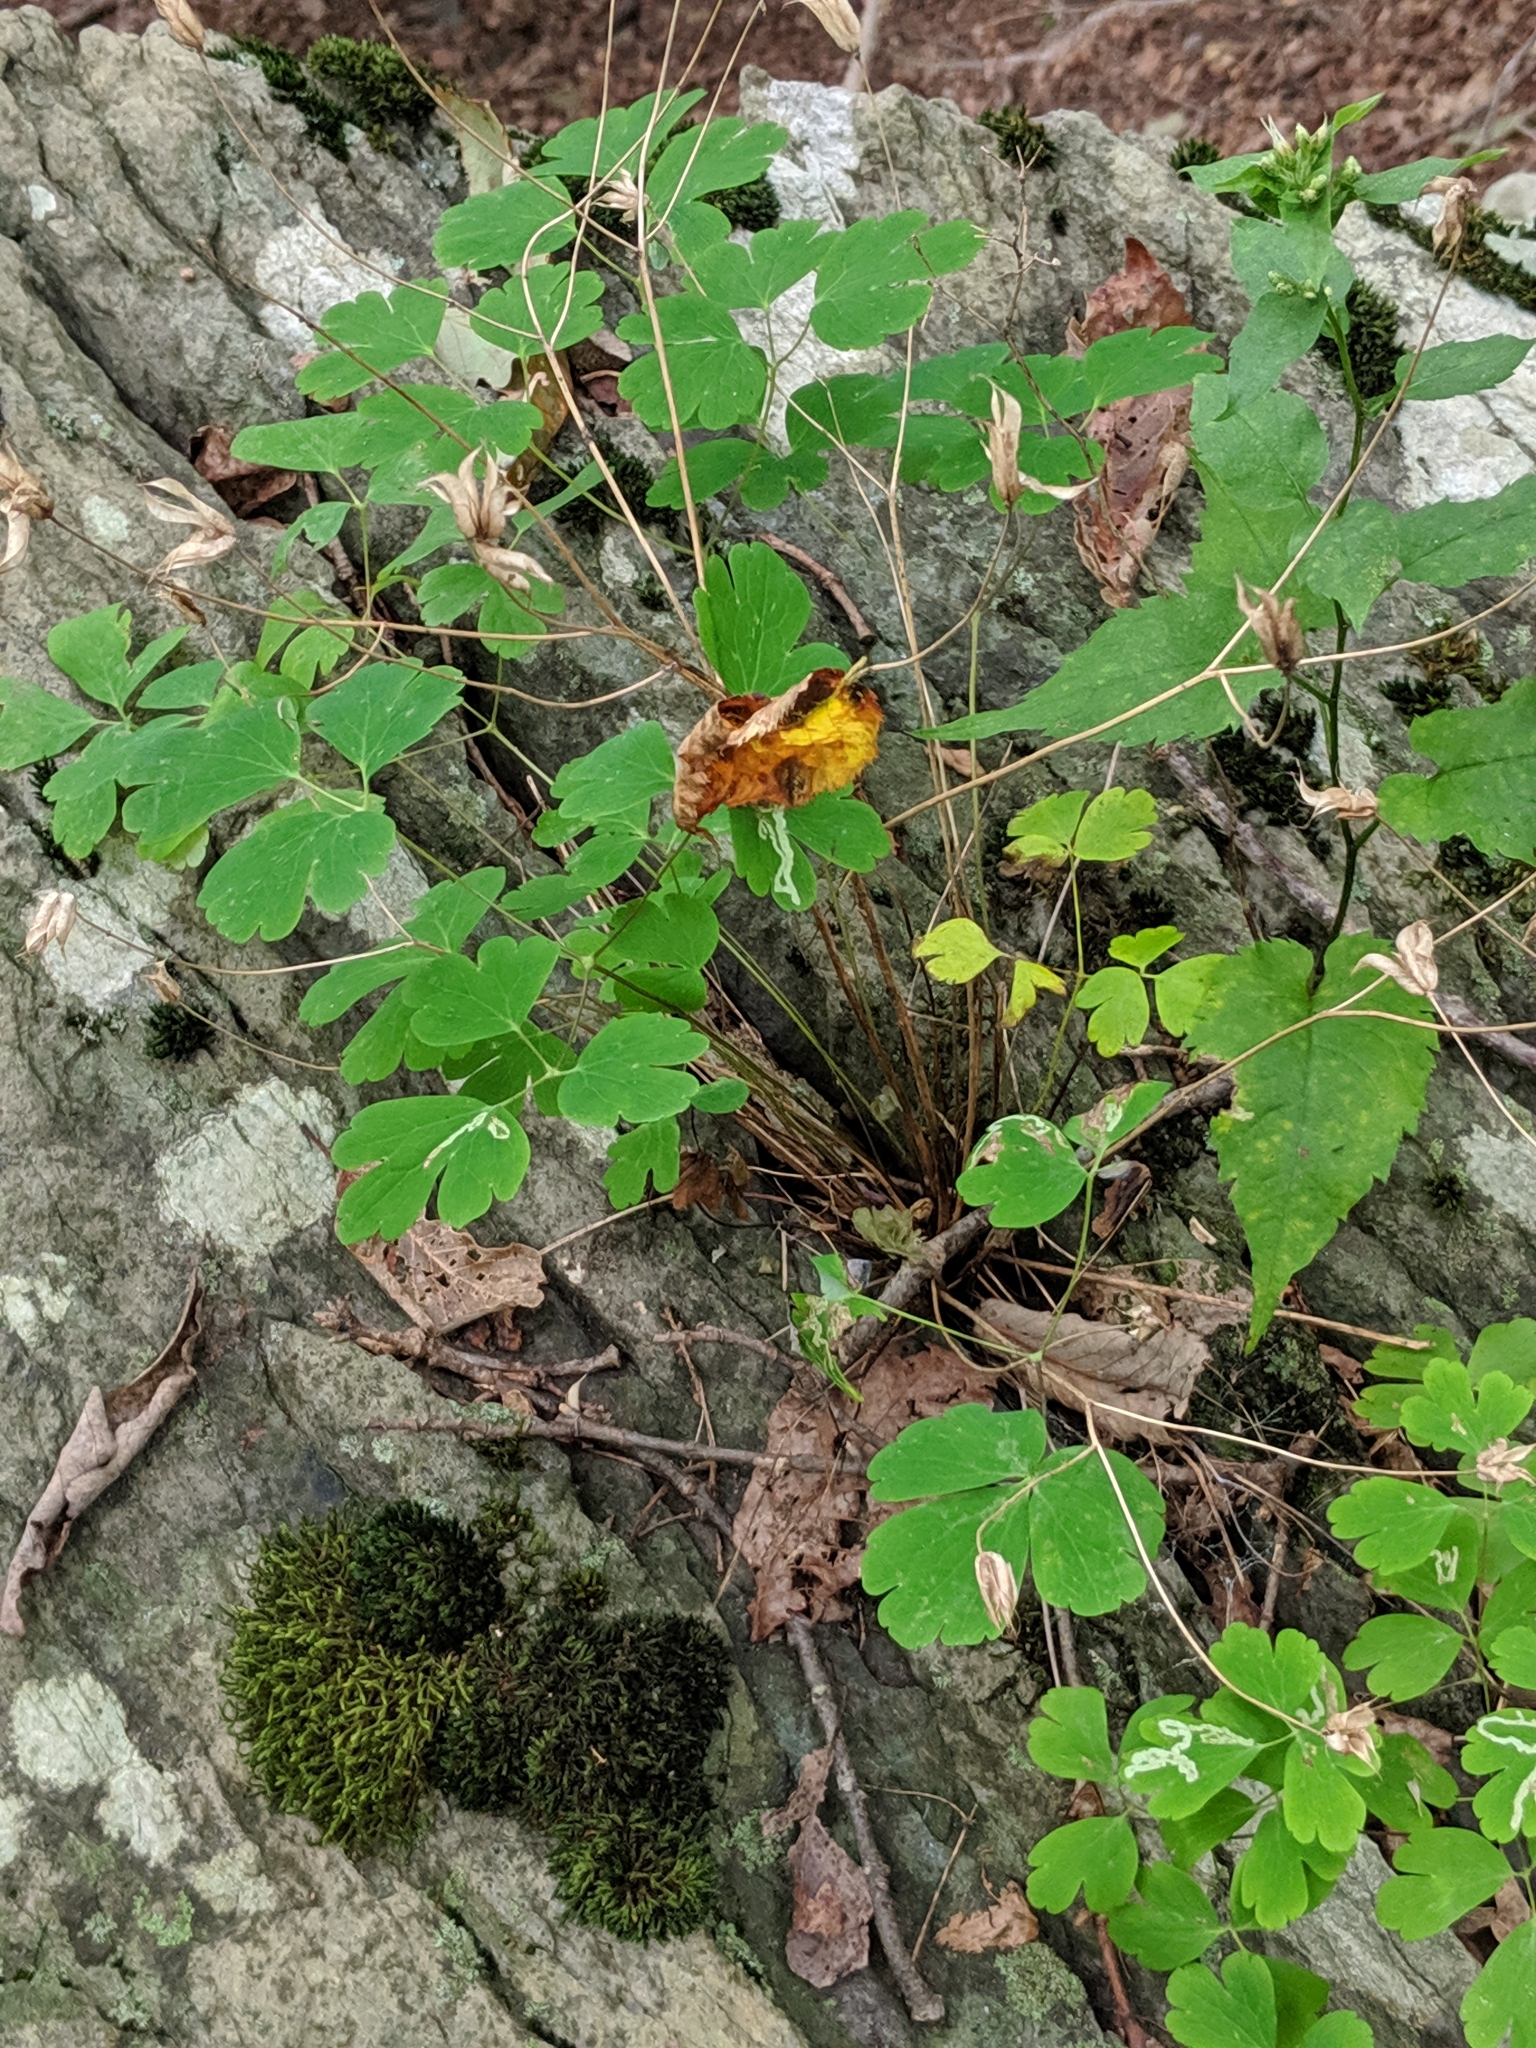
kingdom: Plantae
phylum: Tracheophyta
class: Magnoliopsida
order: Ranunculales
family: Ranunculaceae
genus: Aquilegia
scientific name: Aquilegia canadensis
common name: American columbine
